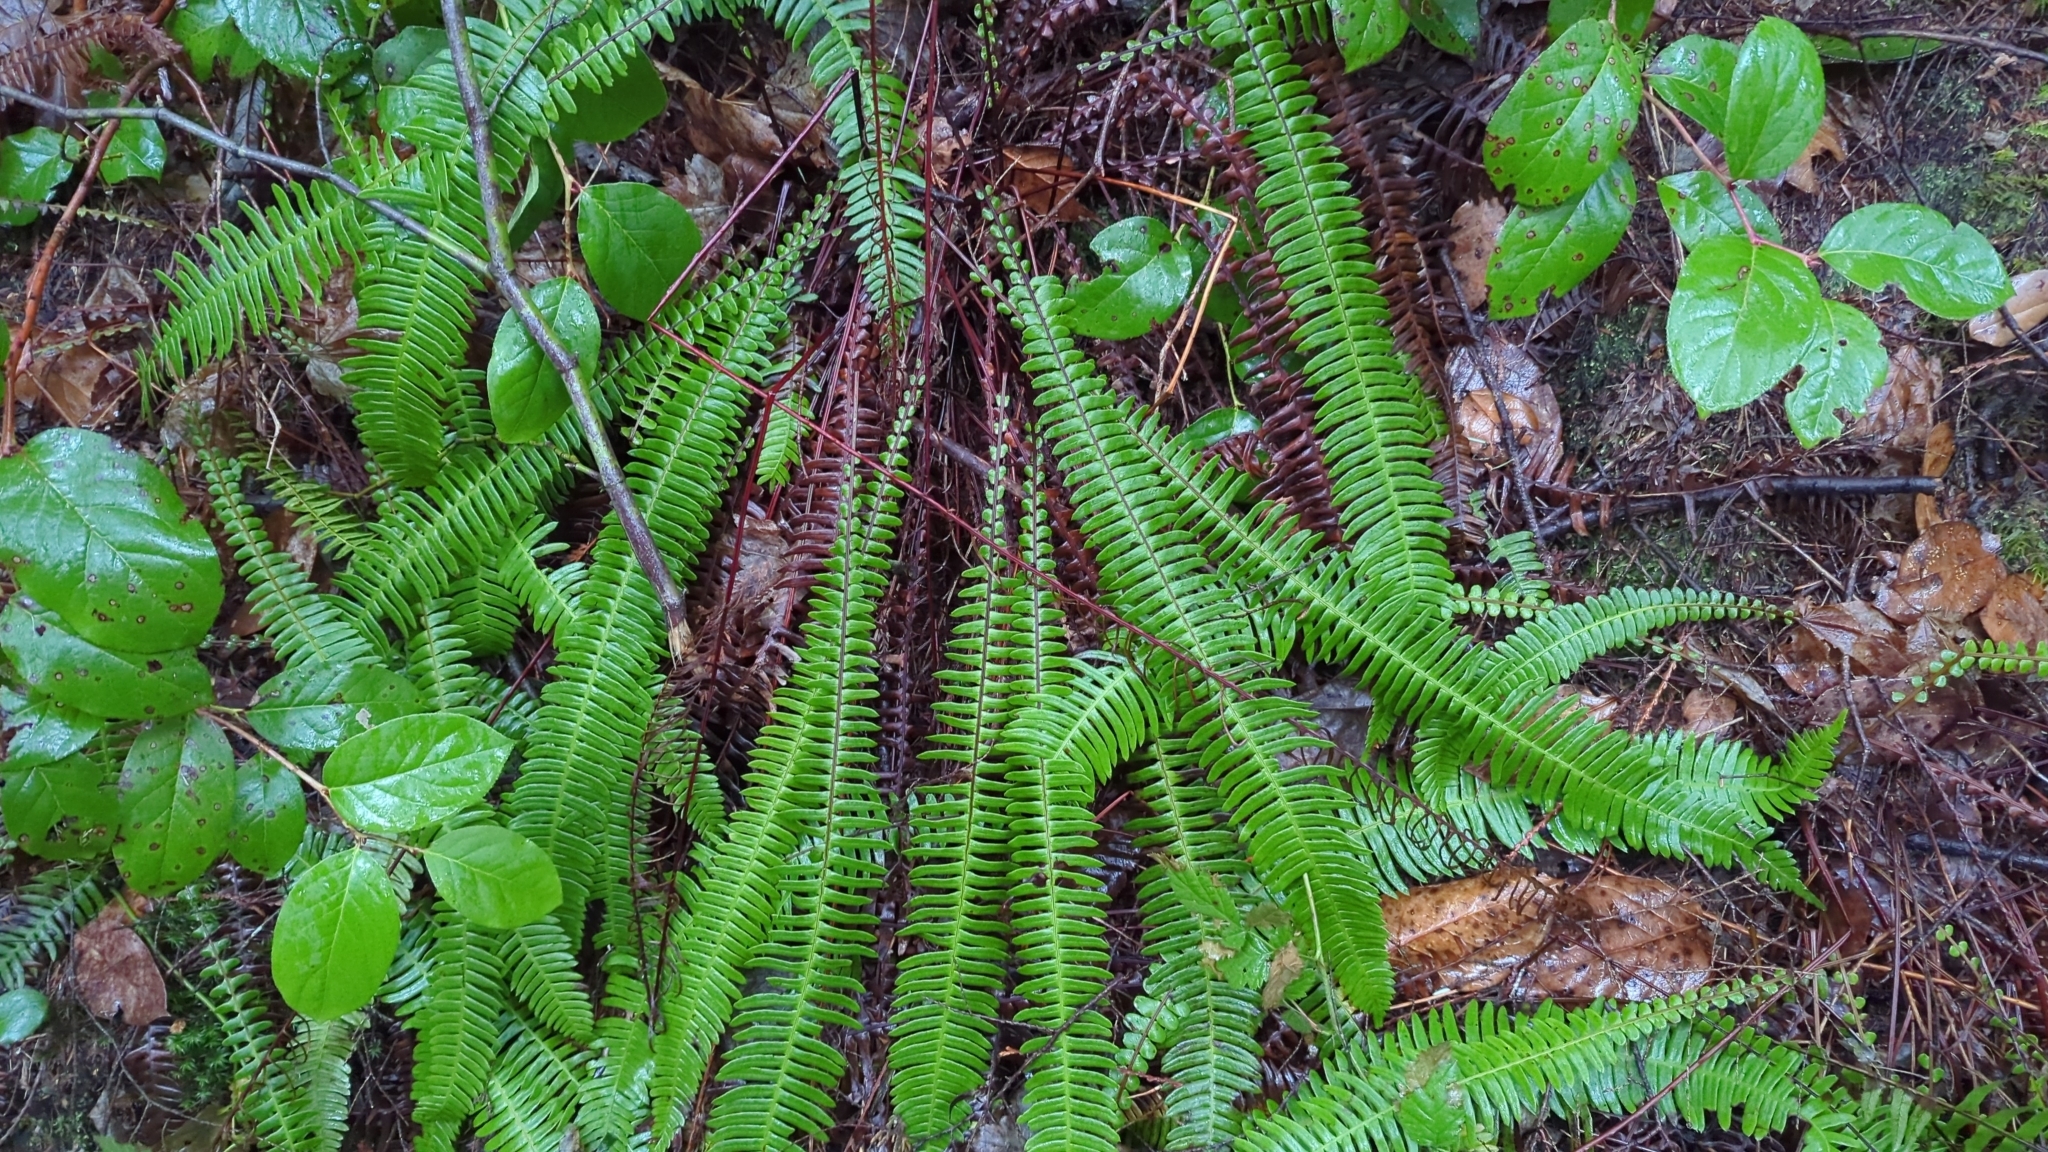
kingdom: Plantae
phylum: Tracheophyta
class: Polypodiopsida
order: Polypodiales
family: Blechnaceae
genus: Struthiopteris
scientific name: Struthiopteris spicant
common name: Deer fern
